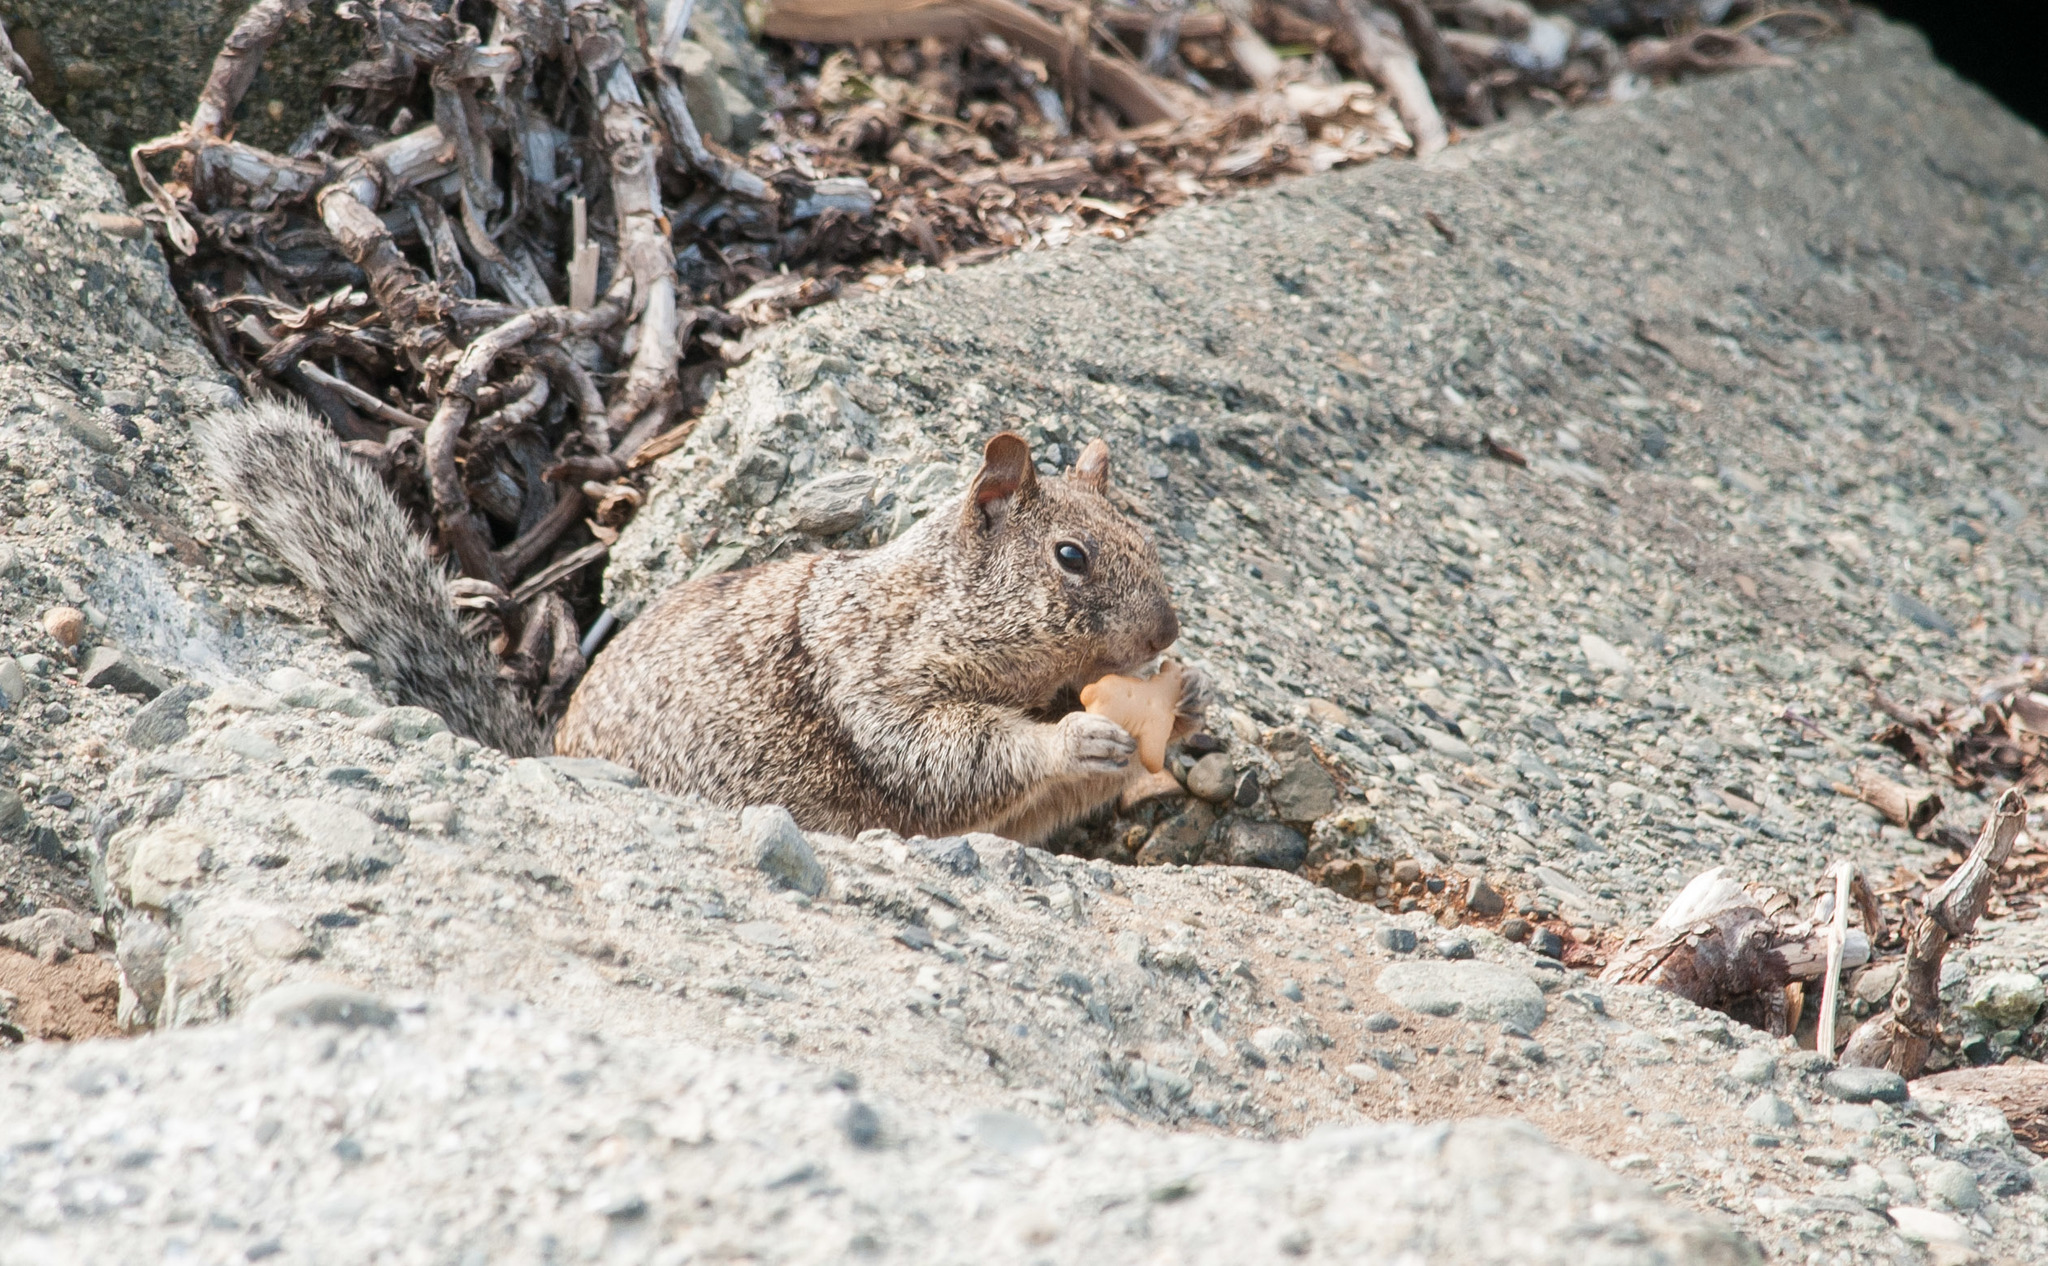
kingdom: Animalia
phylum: Chordata
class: Mammalia
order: Rodentia
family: Sciuridae
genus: Otospermophilus
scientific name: Otospermophilus beecheyi
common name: California ground squirrel
